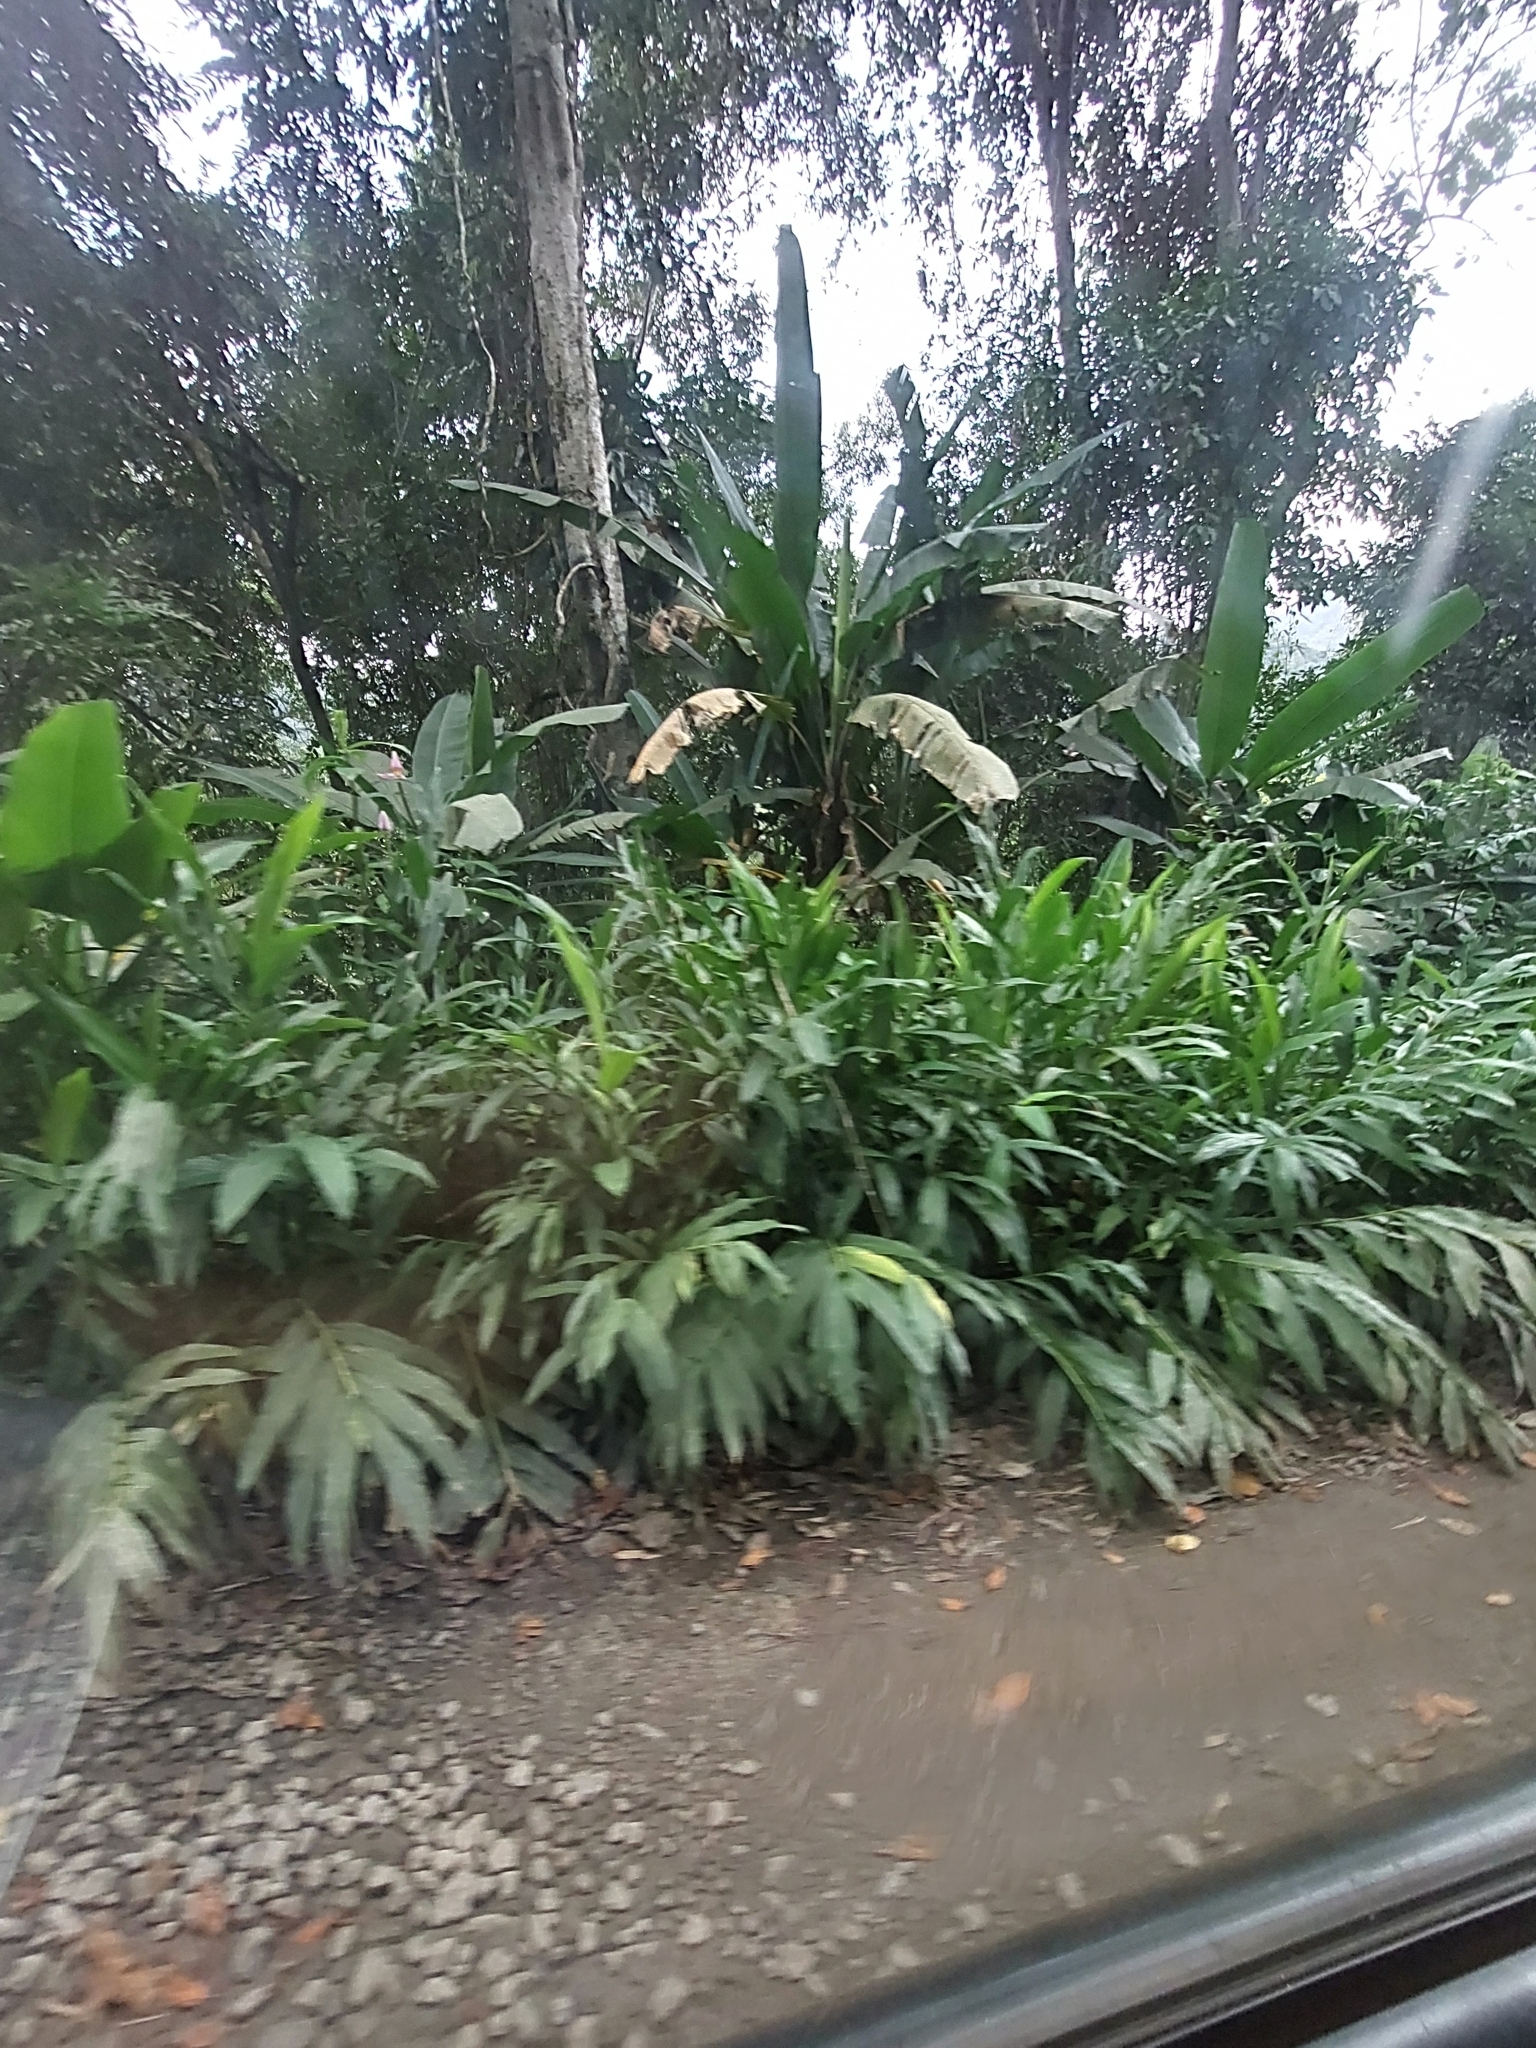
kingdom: Plantae
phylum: Tracheophyta
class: Liliopsida
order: Zingiberales
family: Zingiberaceae
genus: Hedychium
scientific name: Hedychium coronarium
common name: White garland-lily
